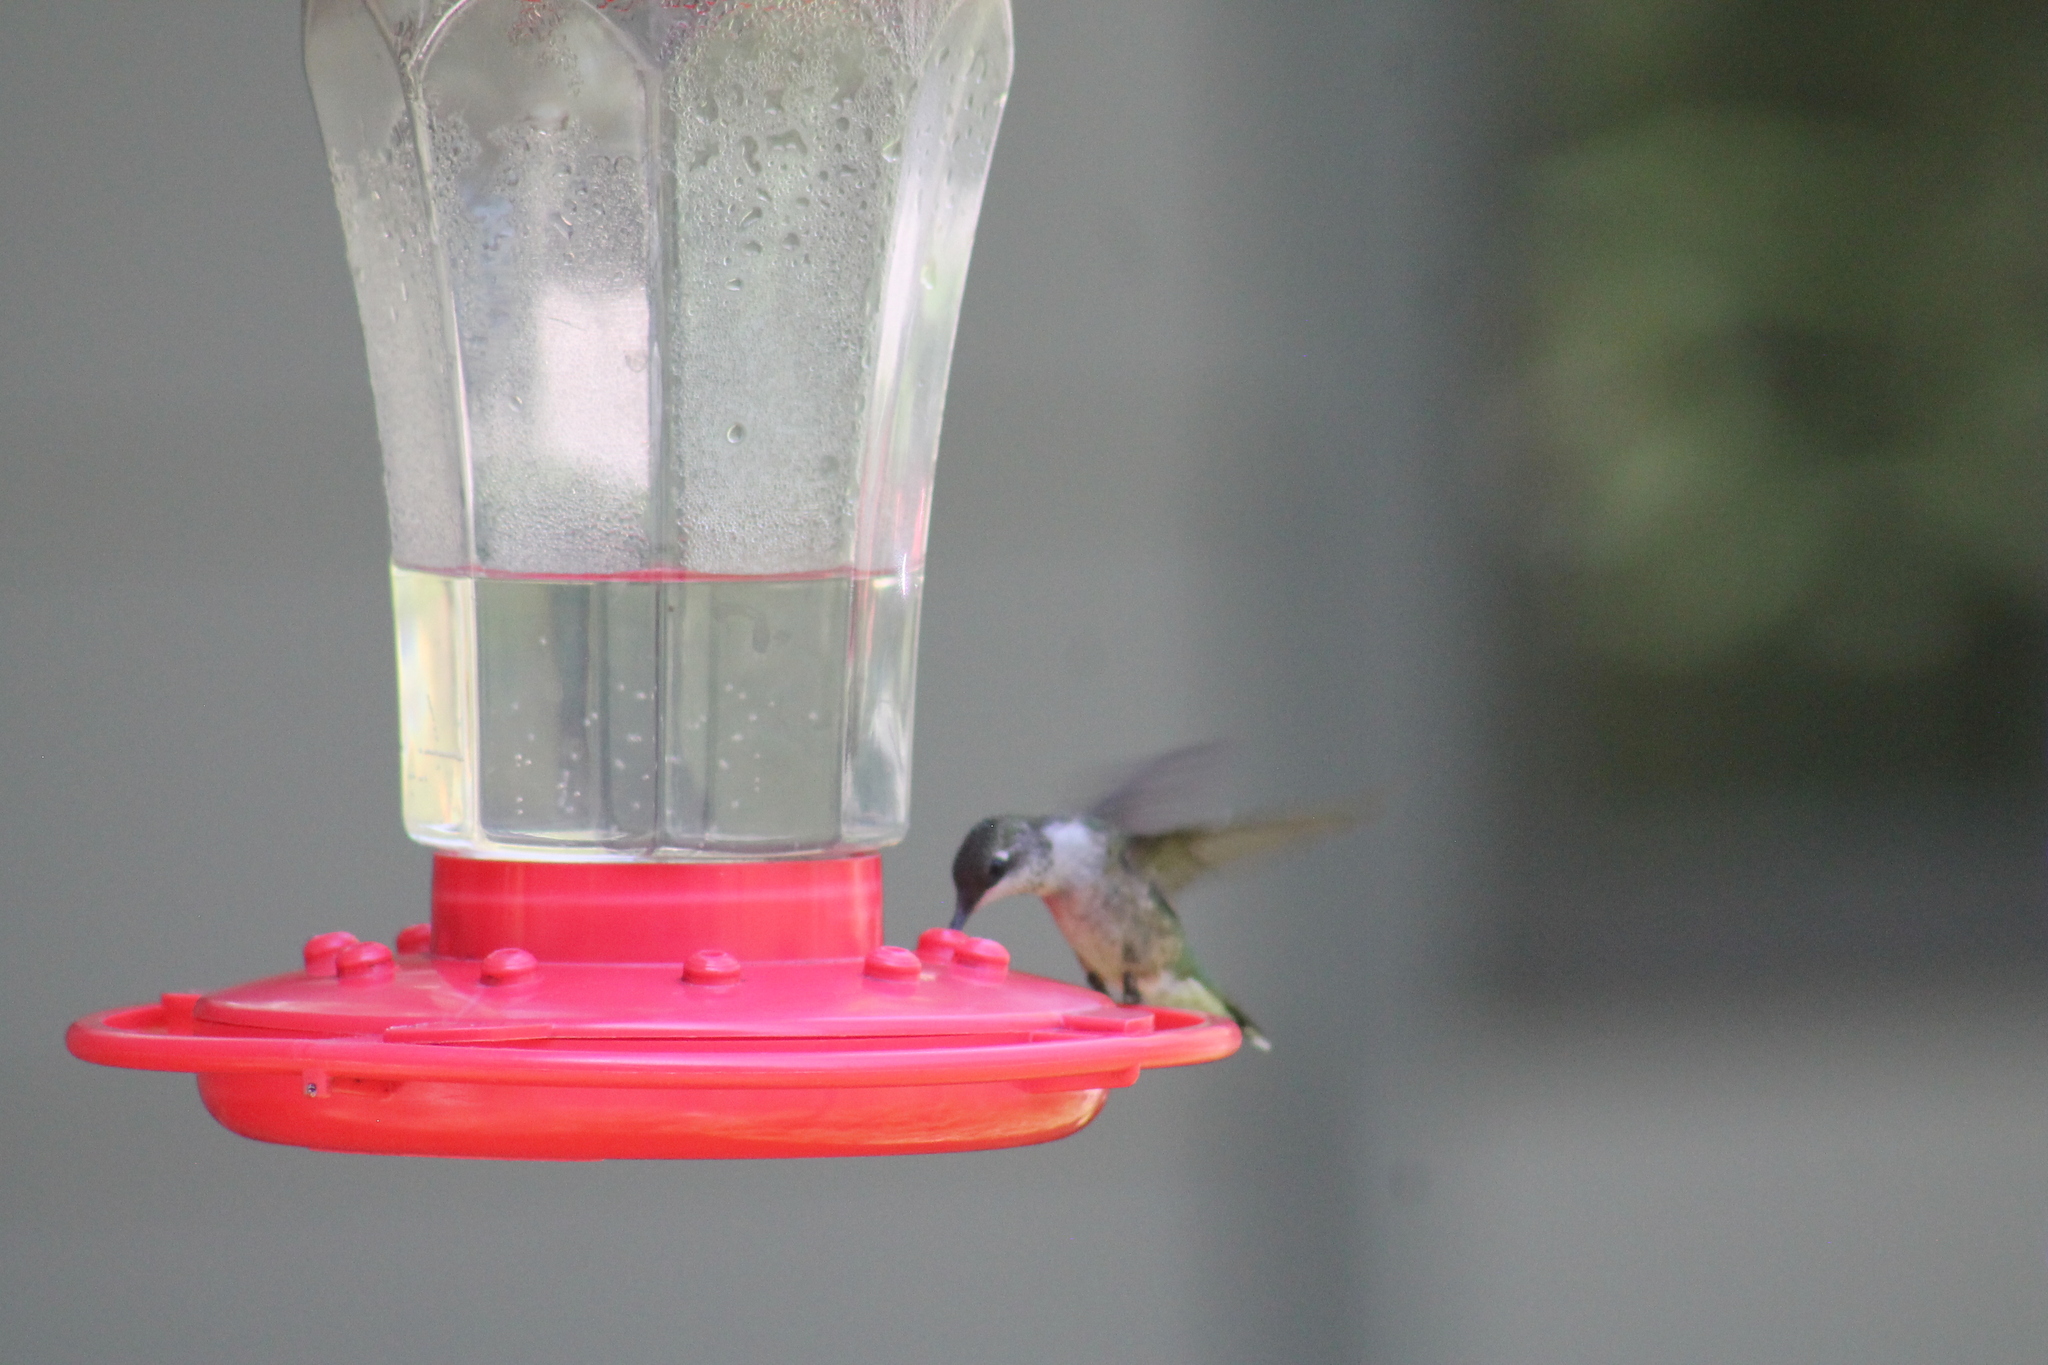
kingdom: Animalia
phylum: Chordata
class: Aves
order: Apodiformes
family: Trochilidae
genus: Archilochus
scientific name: Archilochus colubris
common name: Ruby-throated hummingbird
